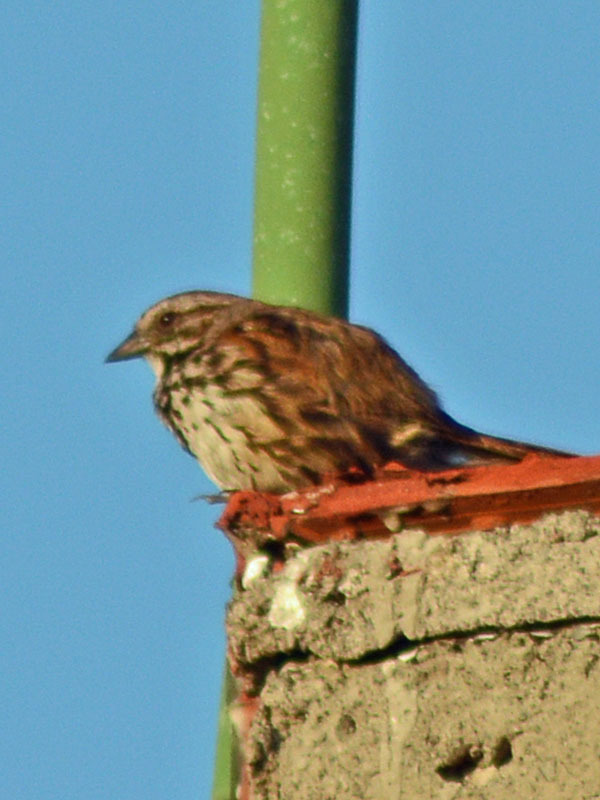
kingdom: Animalia
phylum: Chordata
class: Aves
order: Passeriformes
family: Passerellidae
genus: Melospiza
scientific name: Melospiza melodia
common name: Song sparrow
